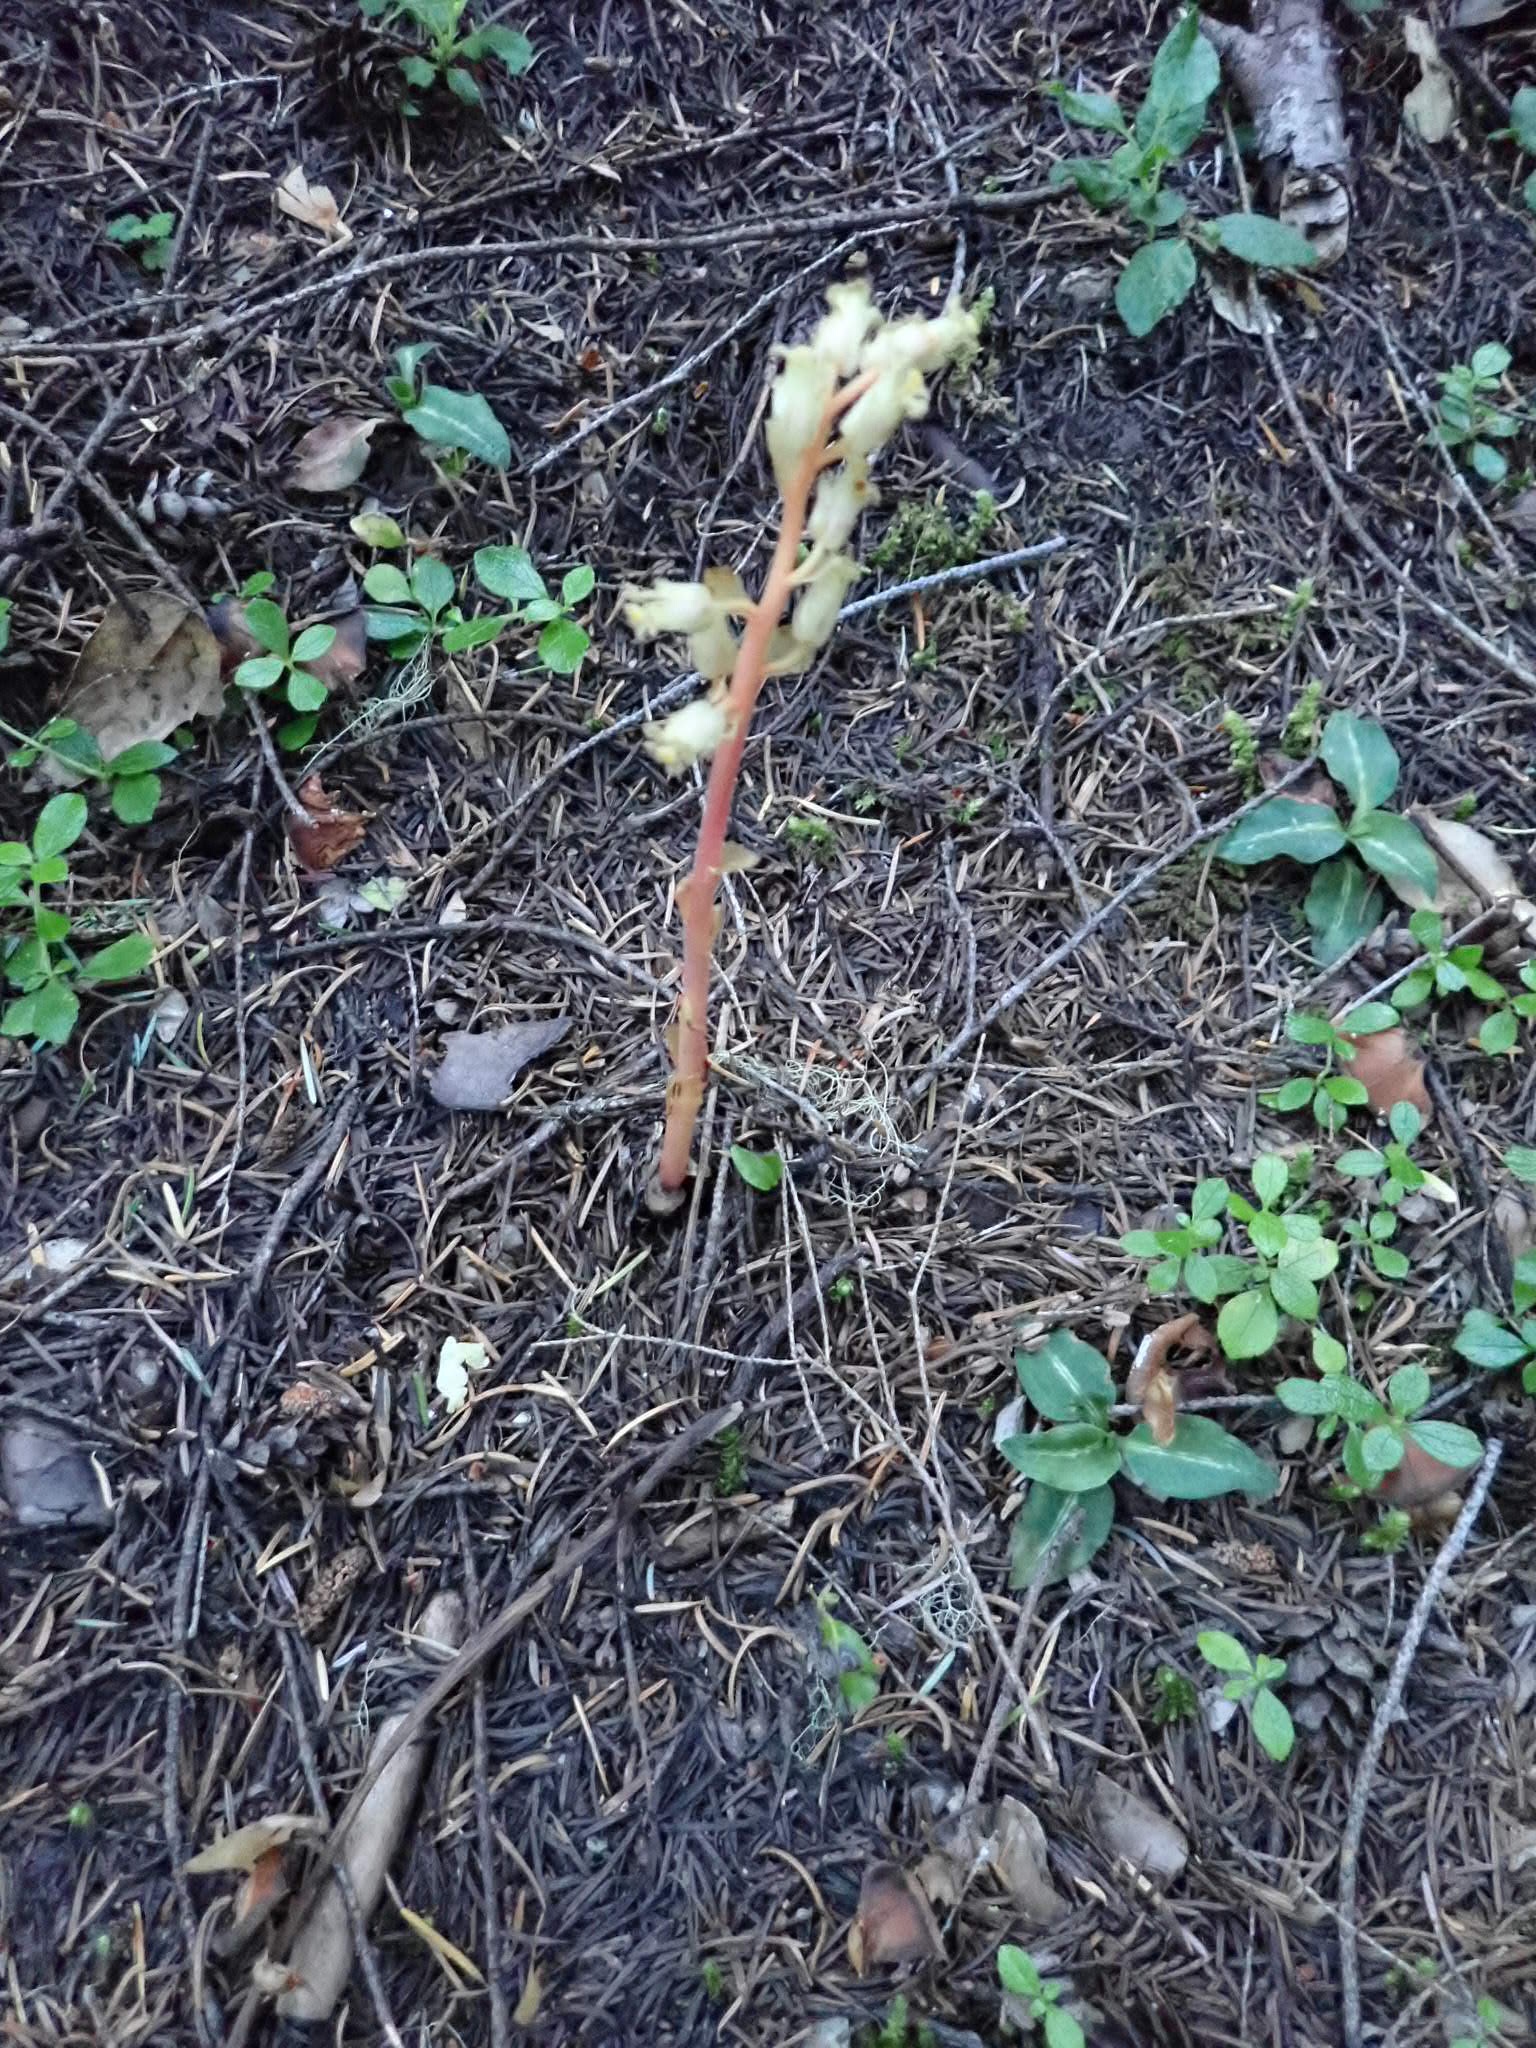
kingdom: Plantae
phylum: Tracheophyta
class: Magnoliopsida
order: Ericales
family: Ericaceae
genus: Hypopitys
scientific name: Hypopitys monotropa
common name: Yellow bird's-nest
